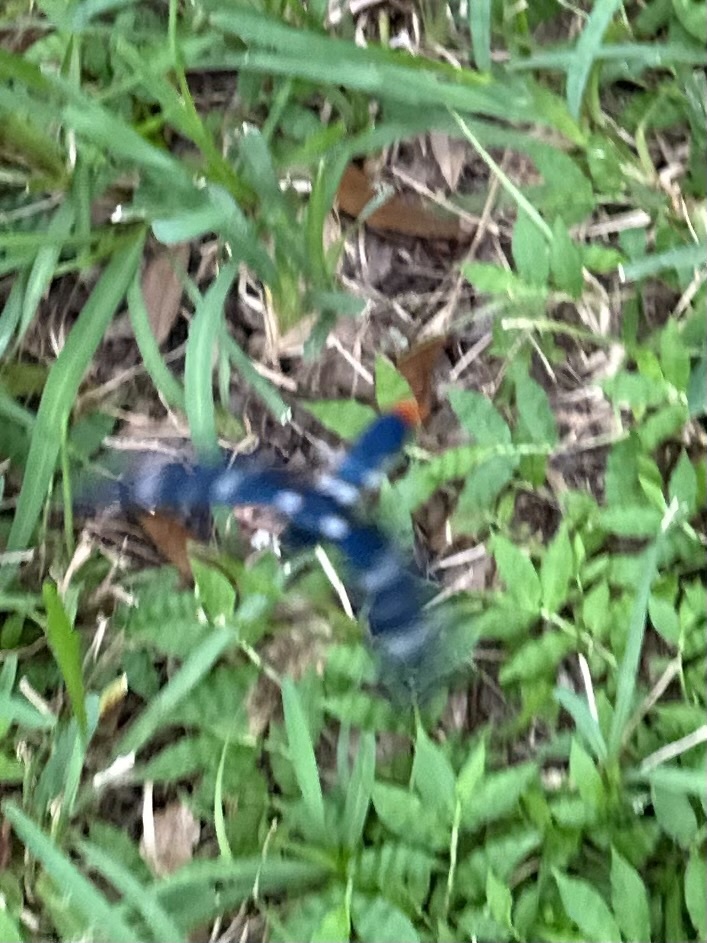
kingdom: Animalia
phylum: Arthropoda
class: Insecta
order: Lepidoptera
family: Erebidae
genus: Syntomeida
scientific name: Syntomeida epilais
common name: Polka-dot wasp moth
